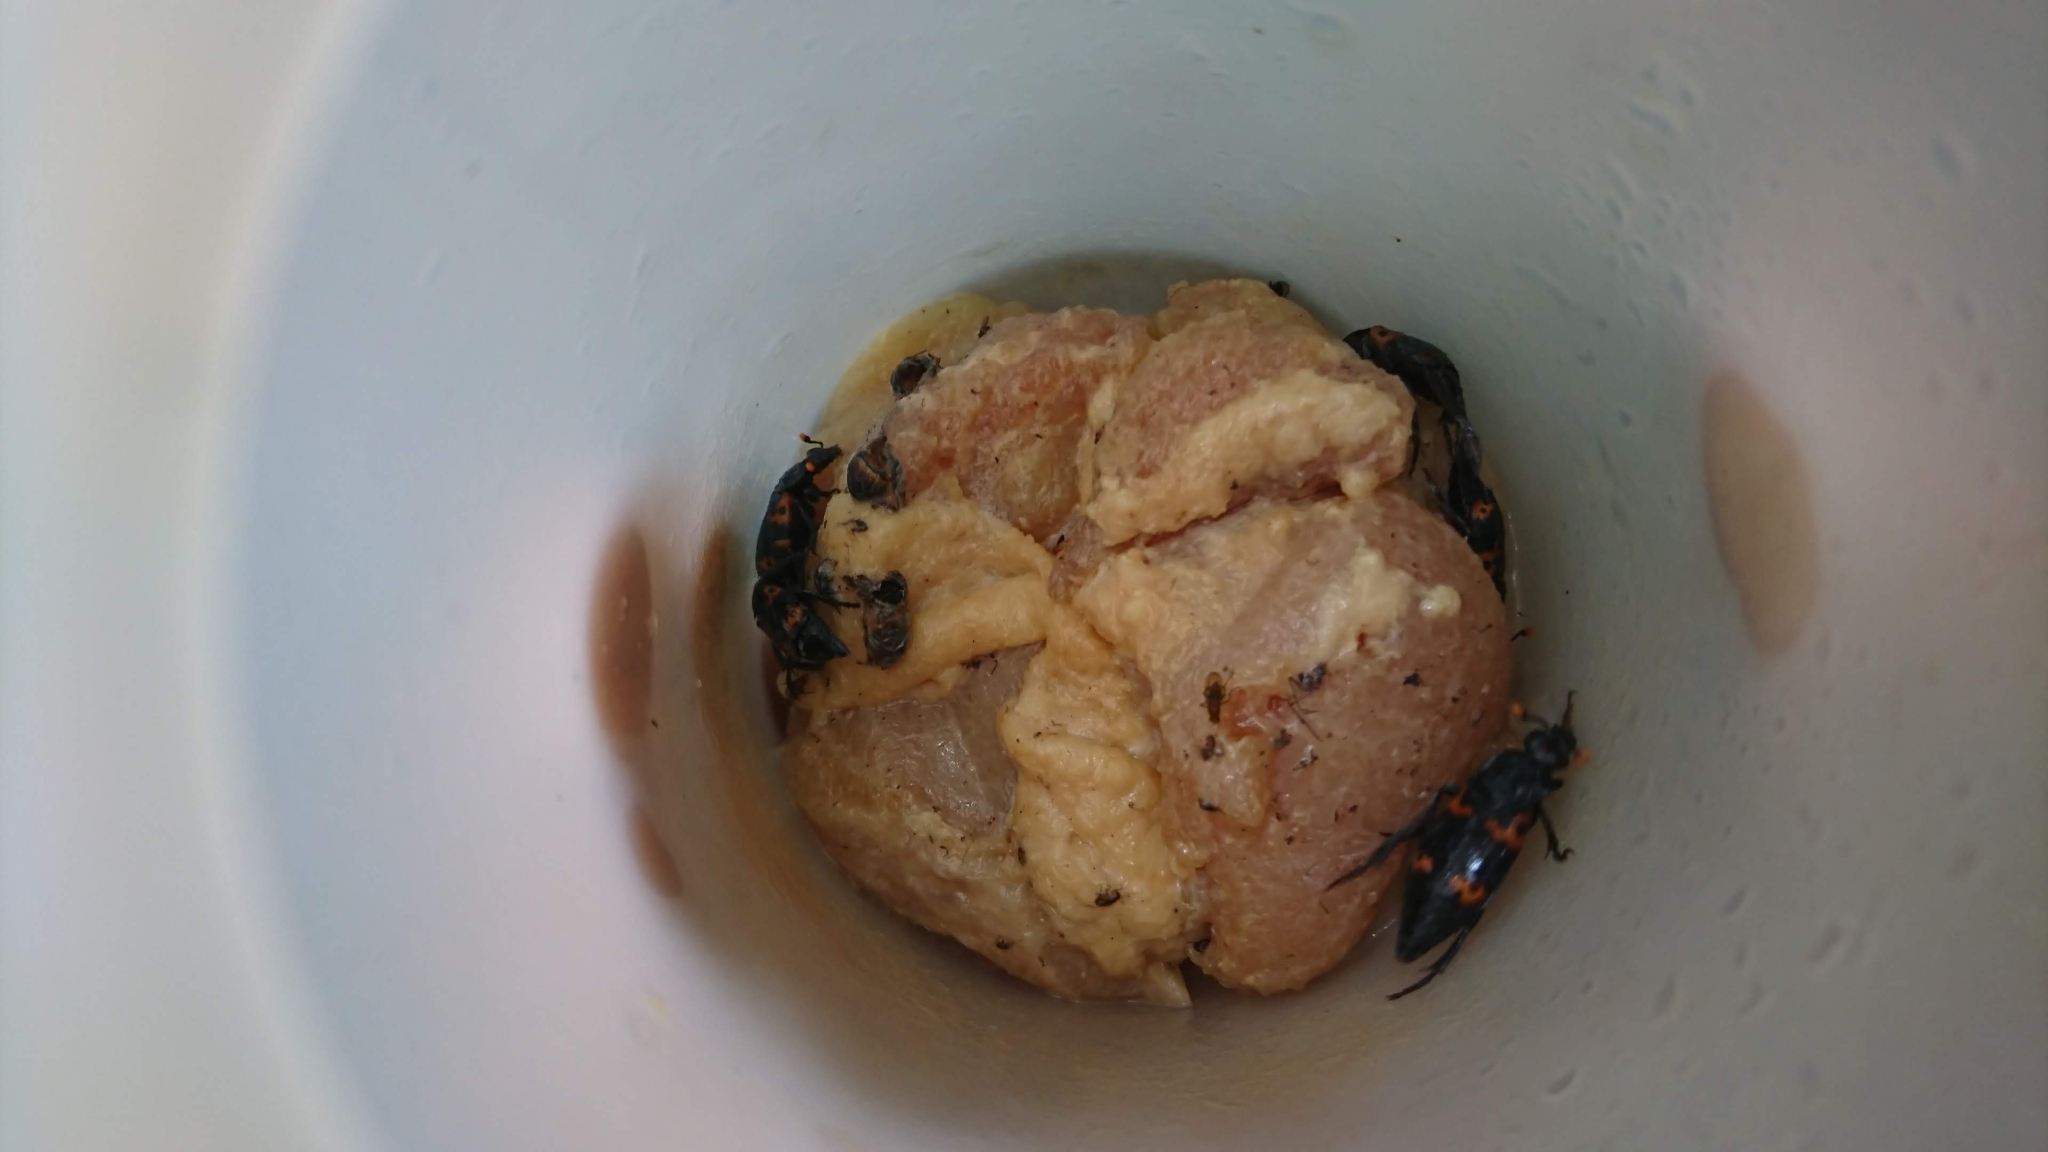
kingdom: Animalia
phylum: Arthropoda
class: Insecta
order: Coleoptera
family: Staphylinidae
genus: Nicrophorus
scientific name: Nicrophorus nepalensis
